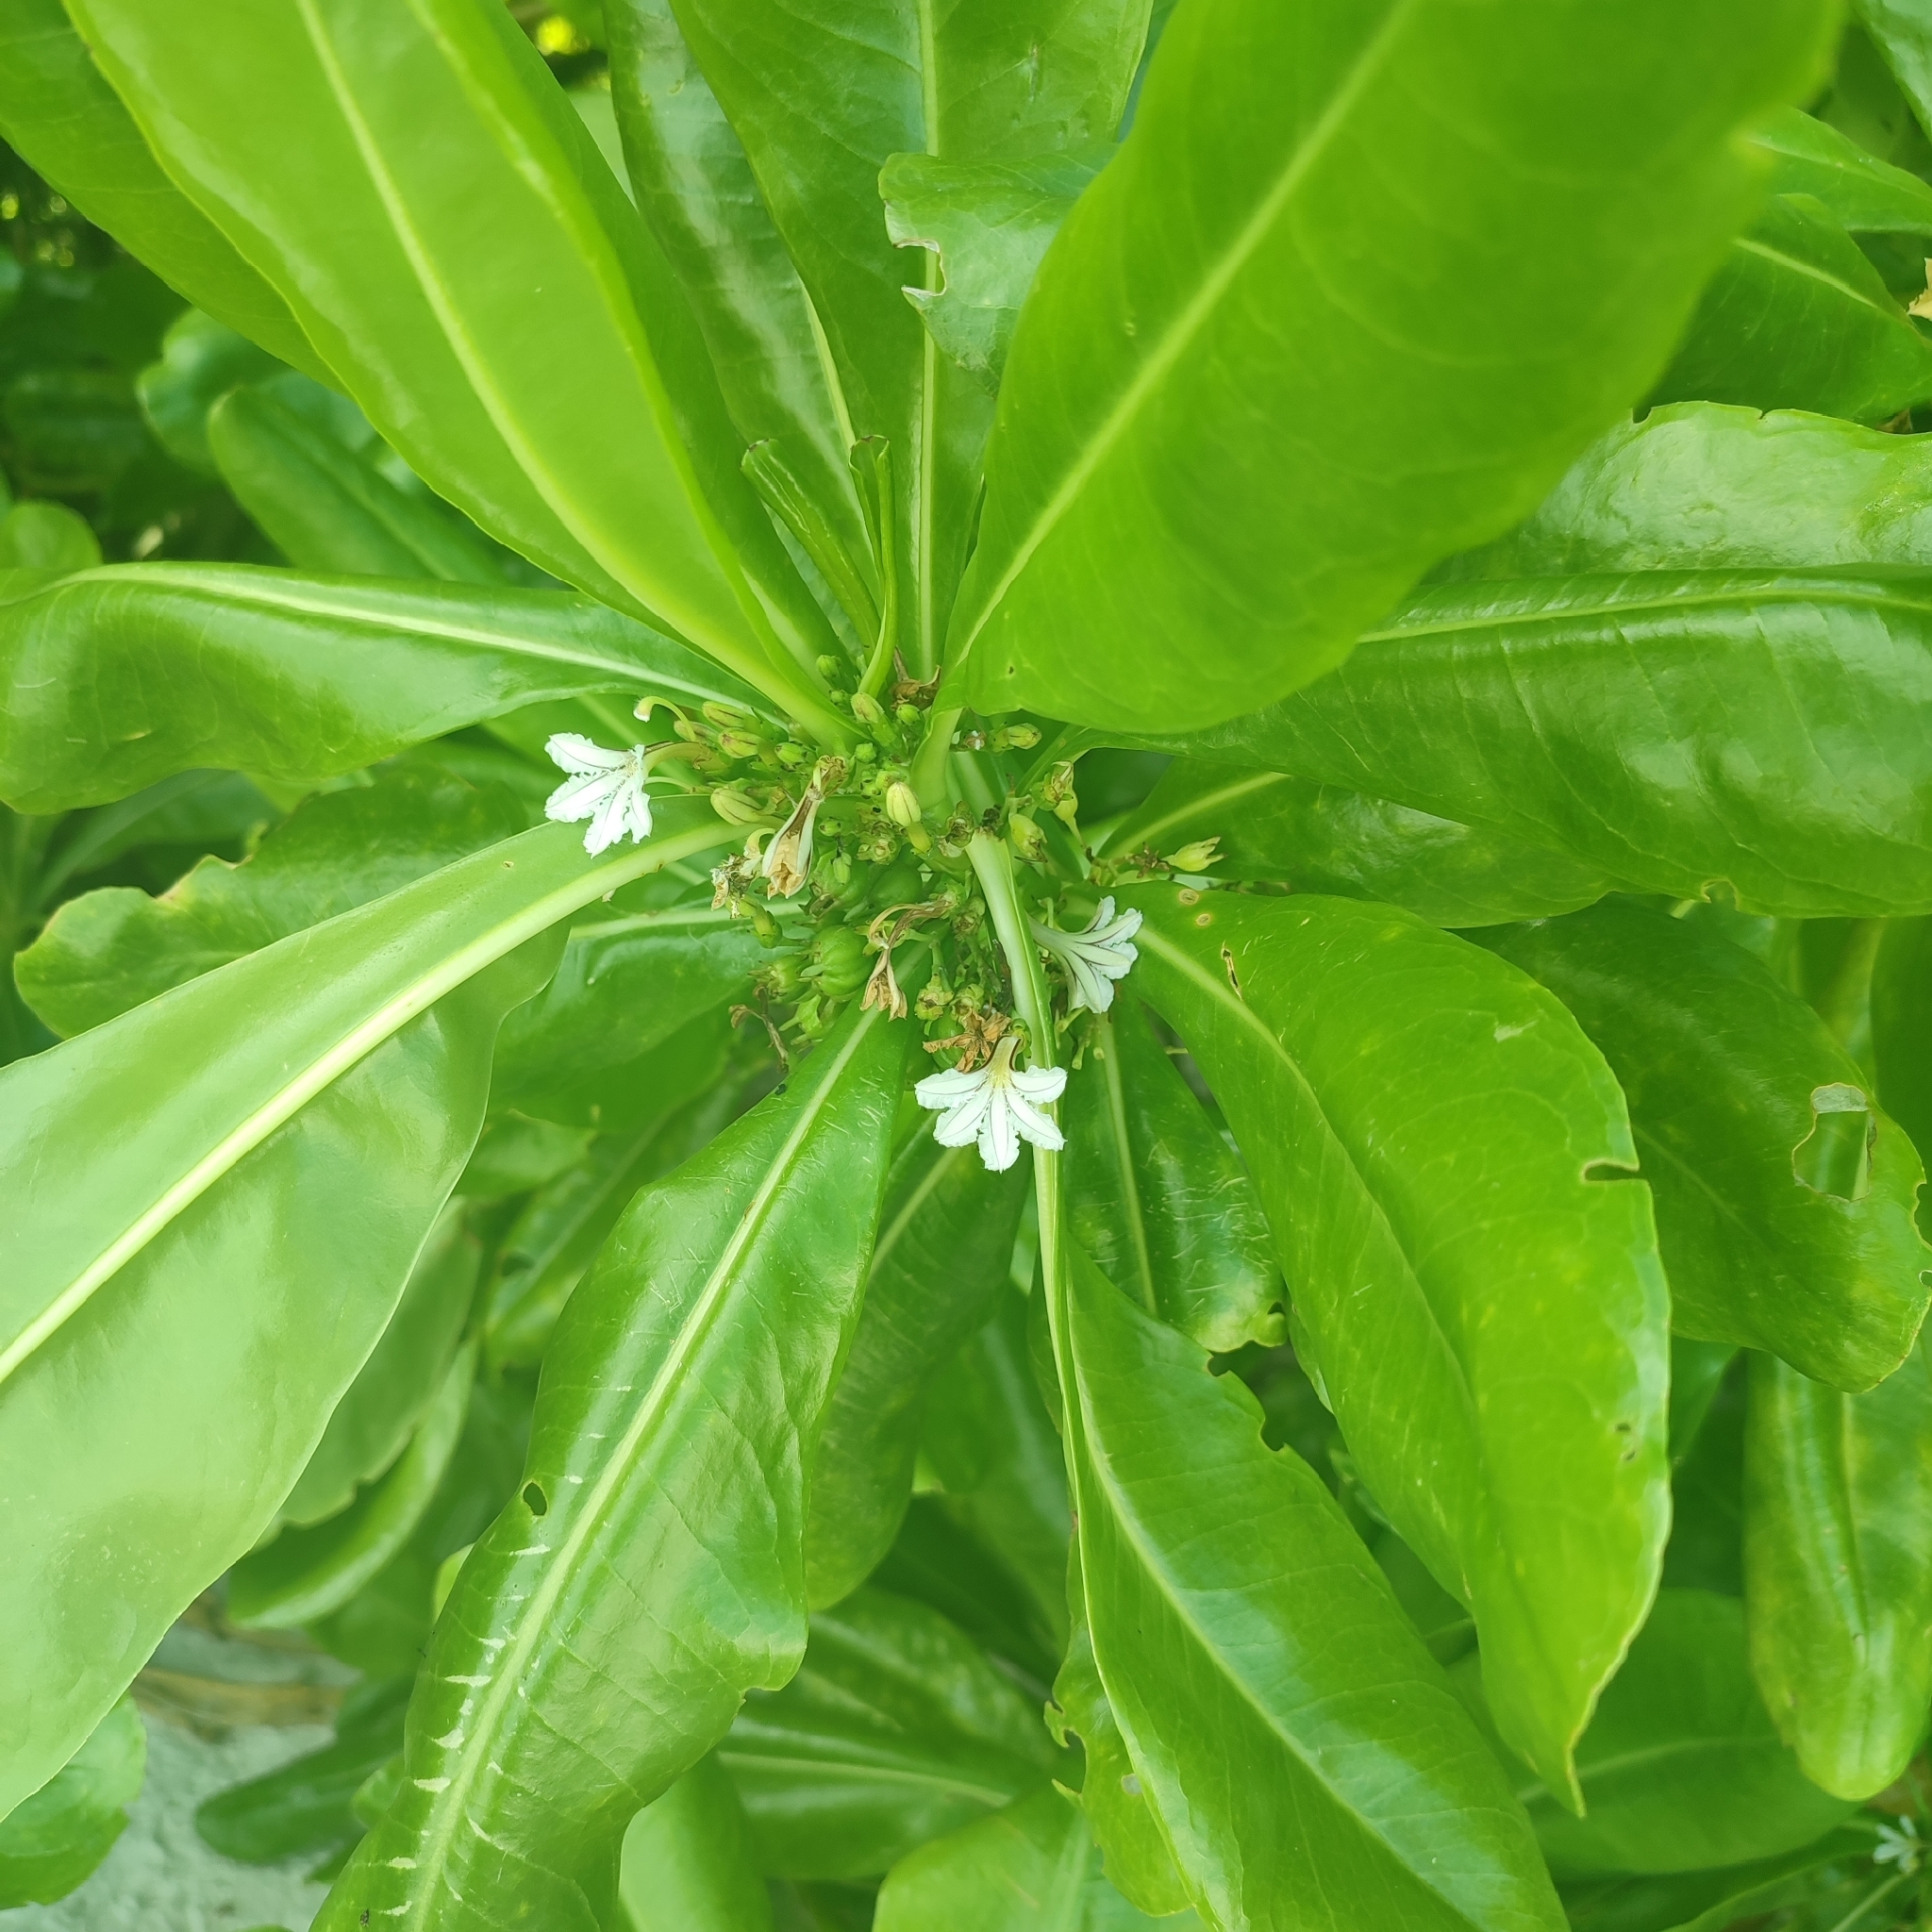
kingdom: Plantae
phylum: Tracheophyta
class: Magnoliopsida
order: Asterales
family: Goodeniaceae
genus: Scaevola
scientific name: Scaevola taccada
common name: Sea lettucetree
